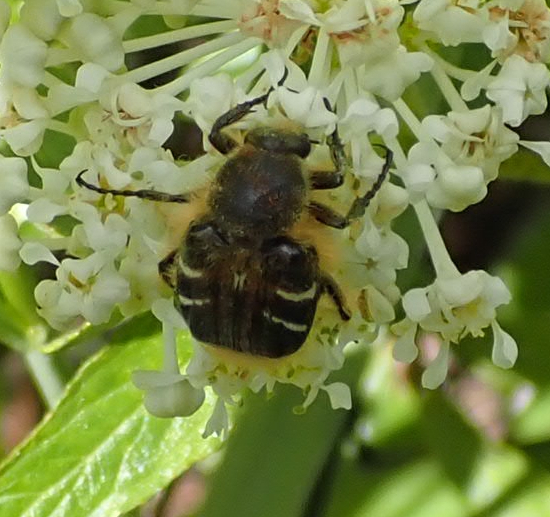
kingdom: Animalia
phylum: Arthropoda
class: Insecta
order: Coleoptera
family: Scarabaeidae
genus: Trichiotinus
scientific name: Trichiotinus assimilis
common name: Bee-mimic beetle
